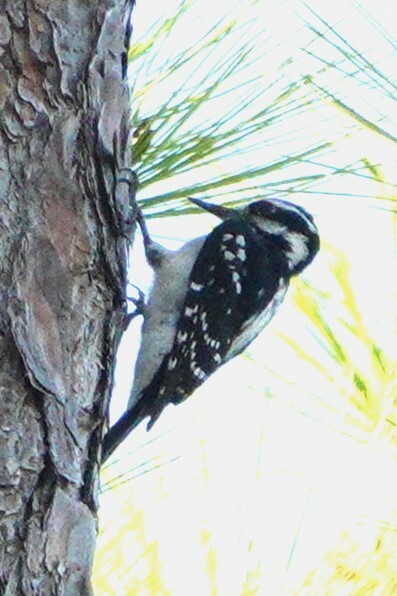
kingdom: Animalia
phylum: Chordata
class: Aves
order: Piciformes
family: Picidae
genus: Leuconotopicus
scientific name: Leuconotopicus villosus
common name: Hairy woodpecker
